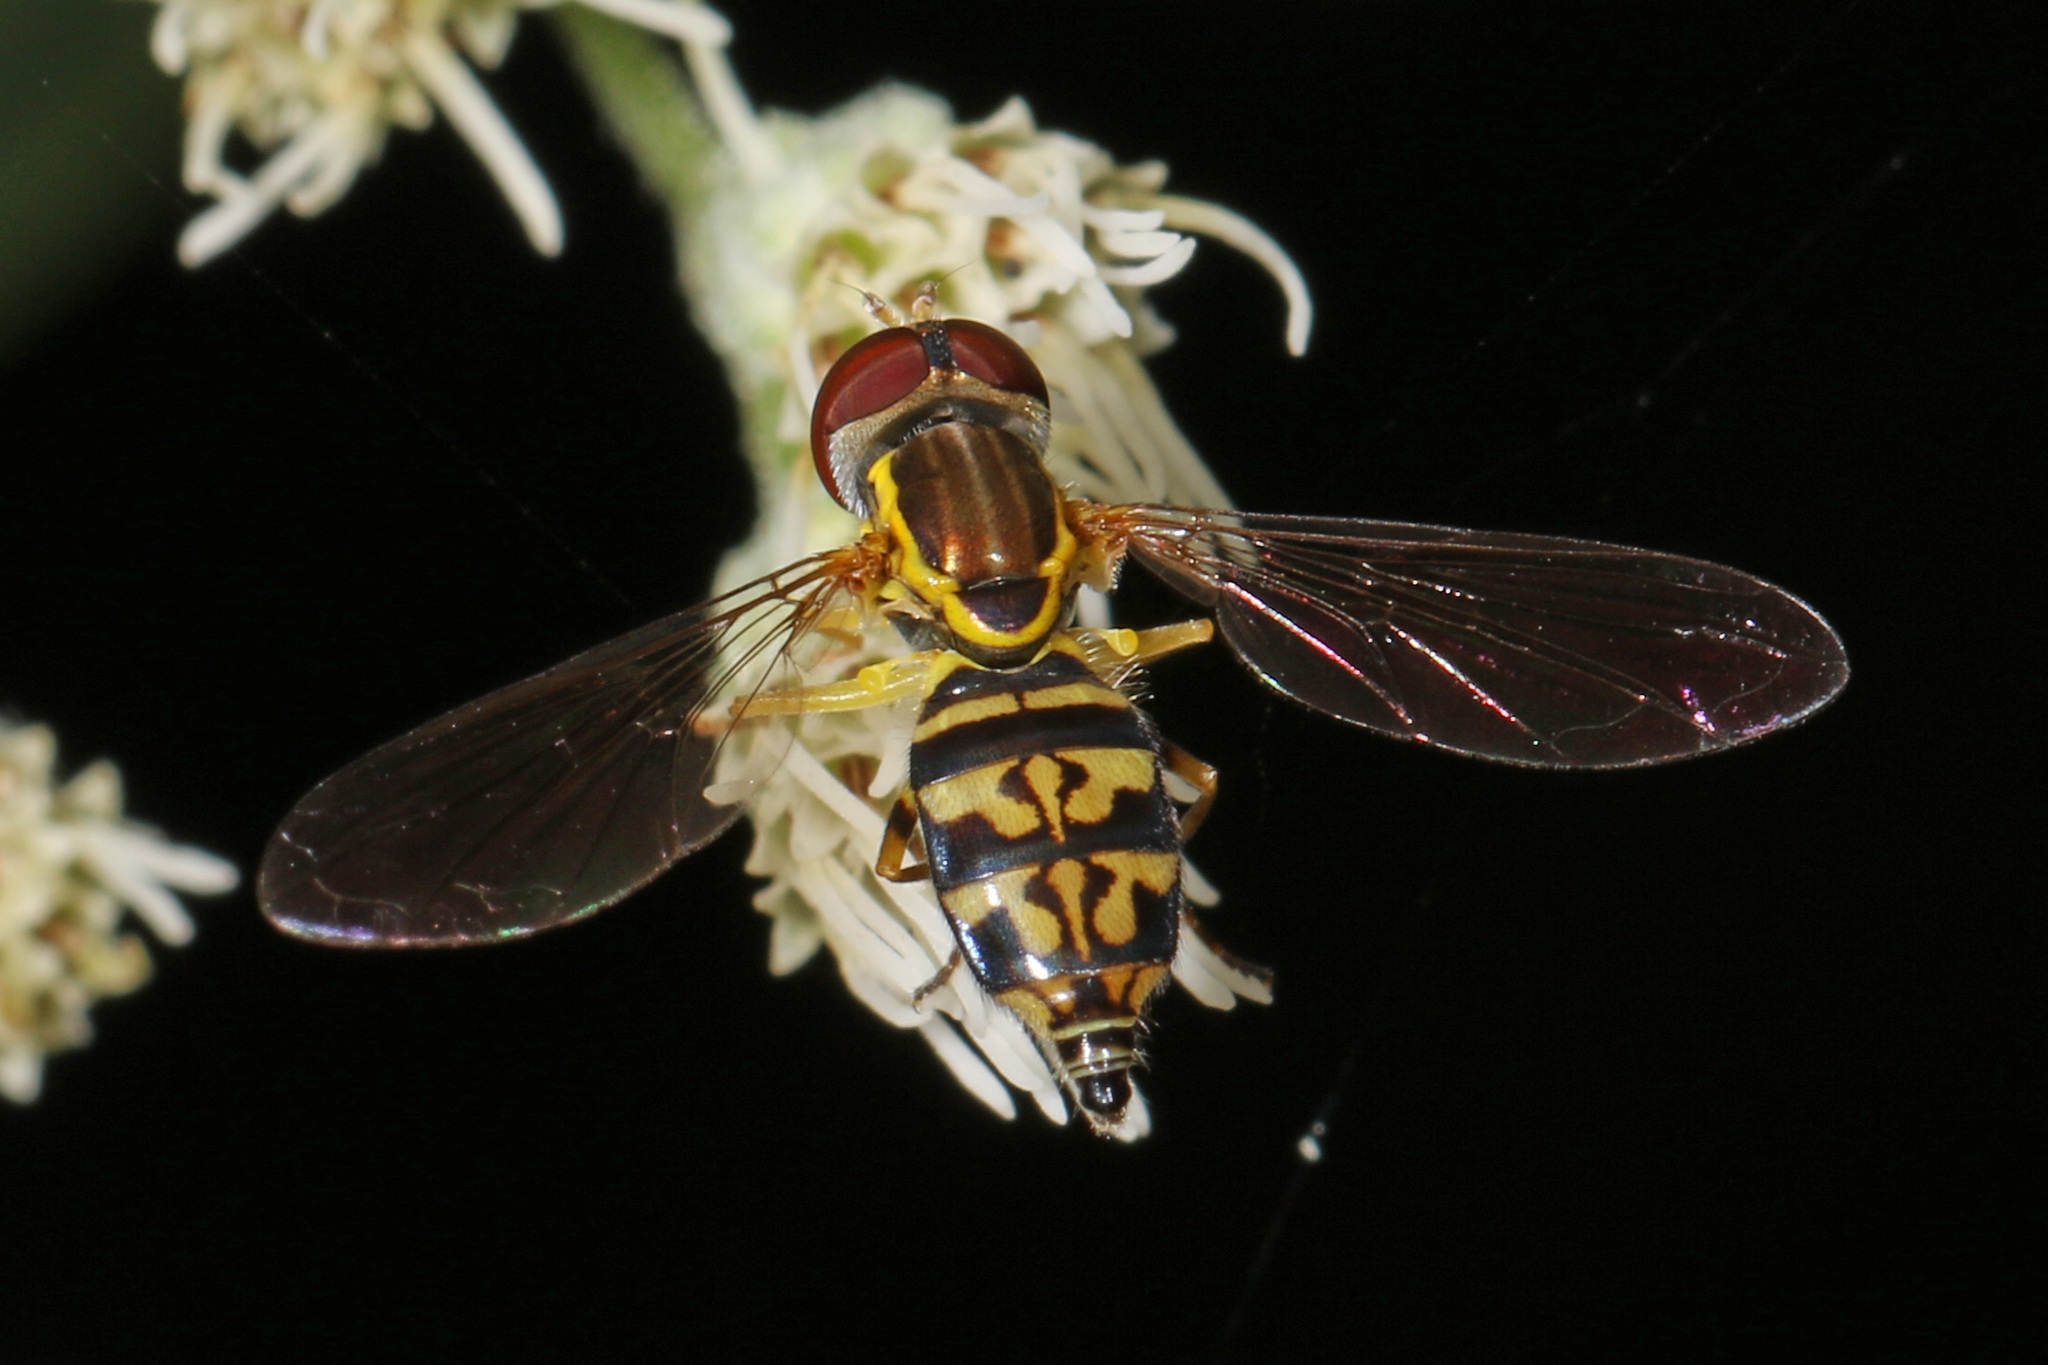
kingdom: Animalia
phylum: Arthropoda
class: Insecta
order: Diptera
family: Syrphidae
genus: Toxomerus
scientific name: Toxomerus geminatus
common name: Eastern calligrapher
